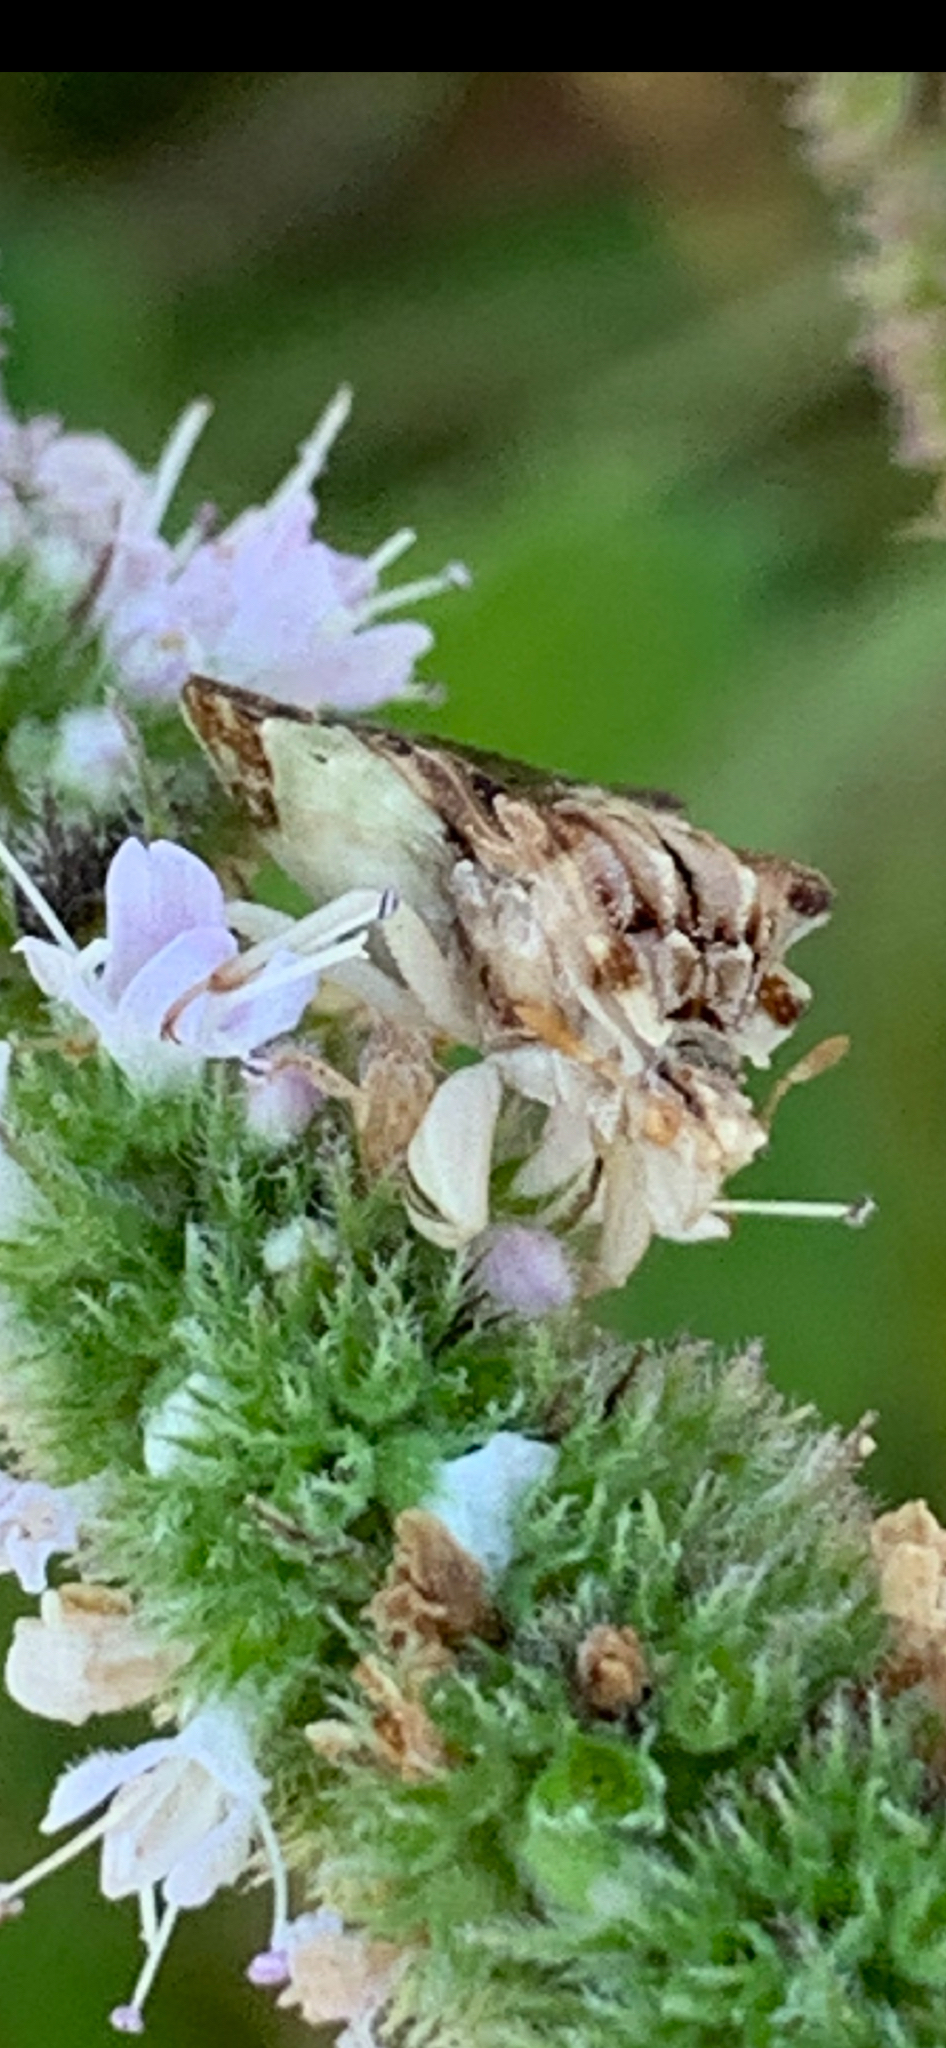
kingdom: Animalia
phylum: Arthropoda
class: Insecta
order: Hemiptera
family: Reduviidae
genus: Phymata
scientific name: Phymata fasciata
